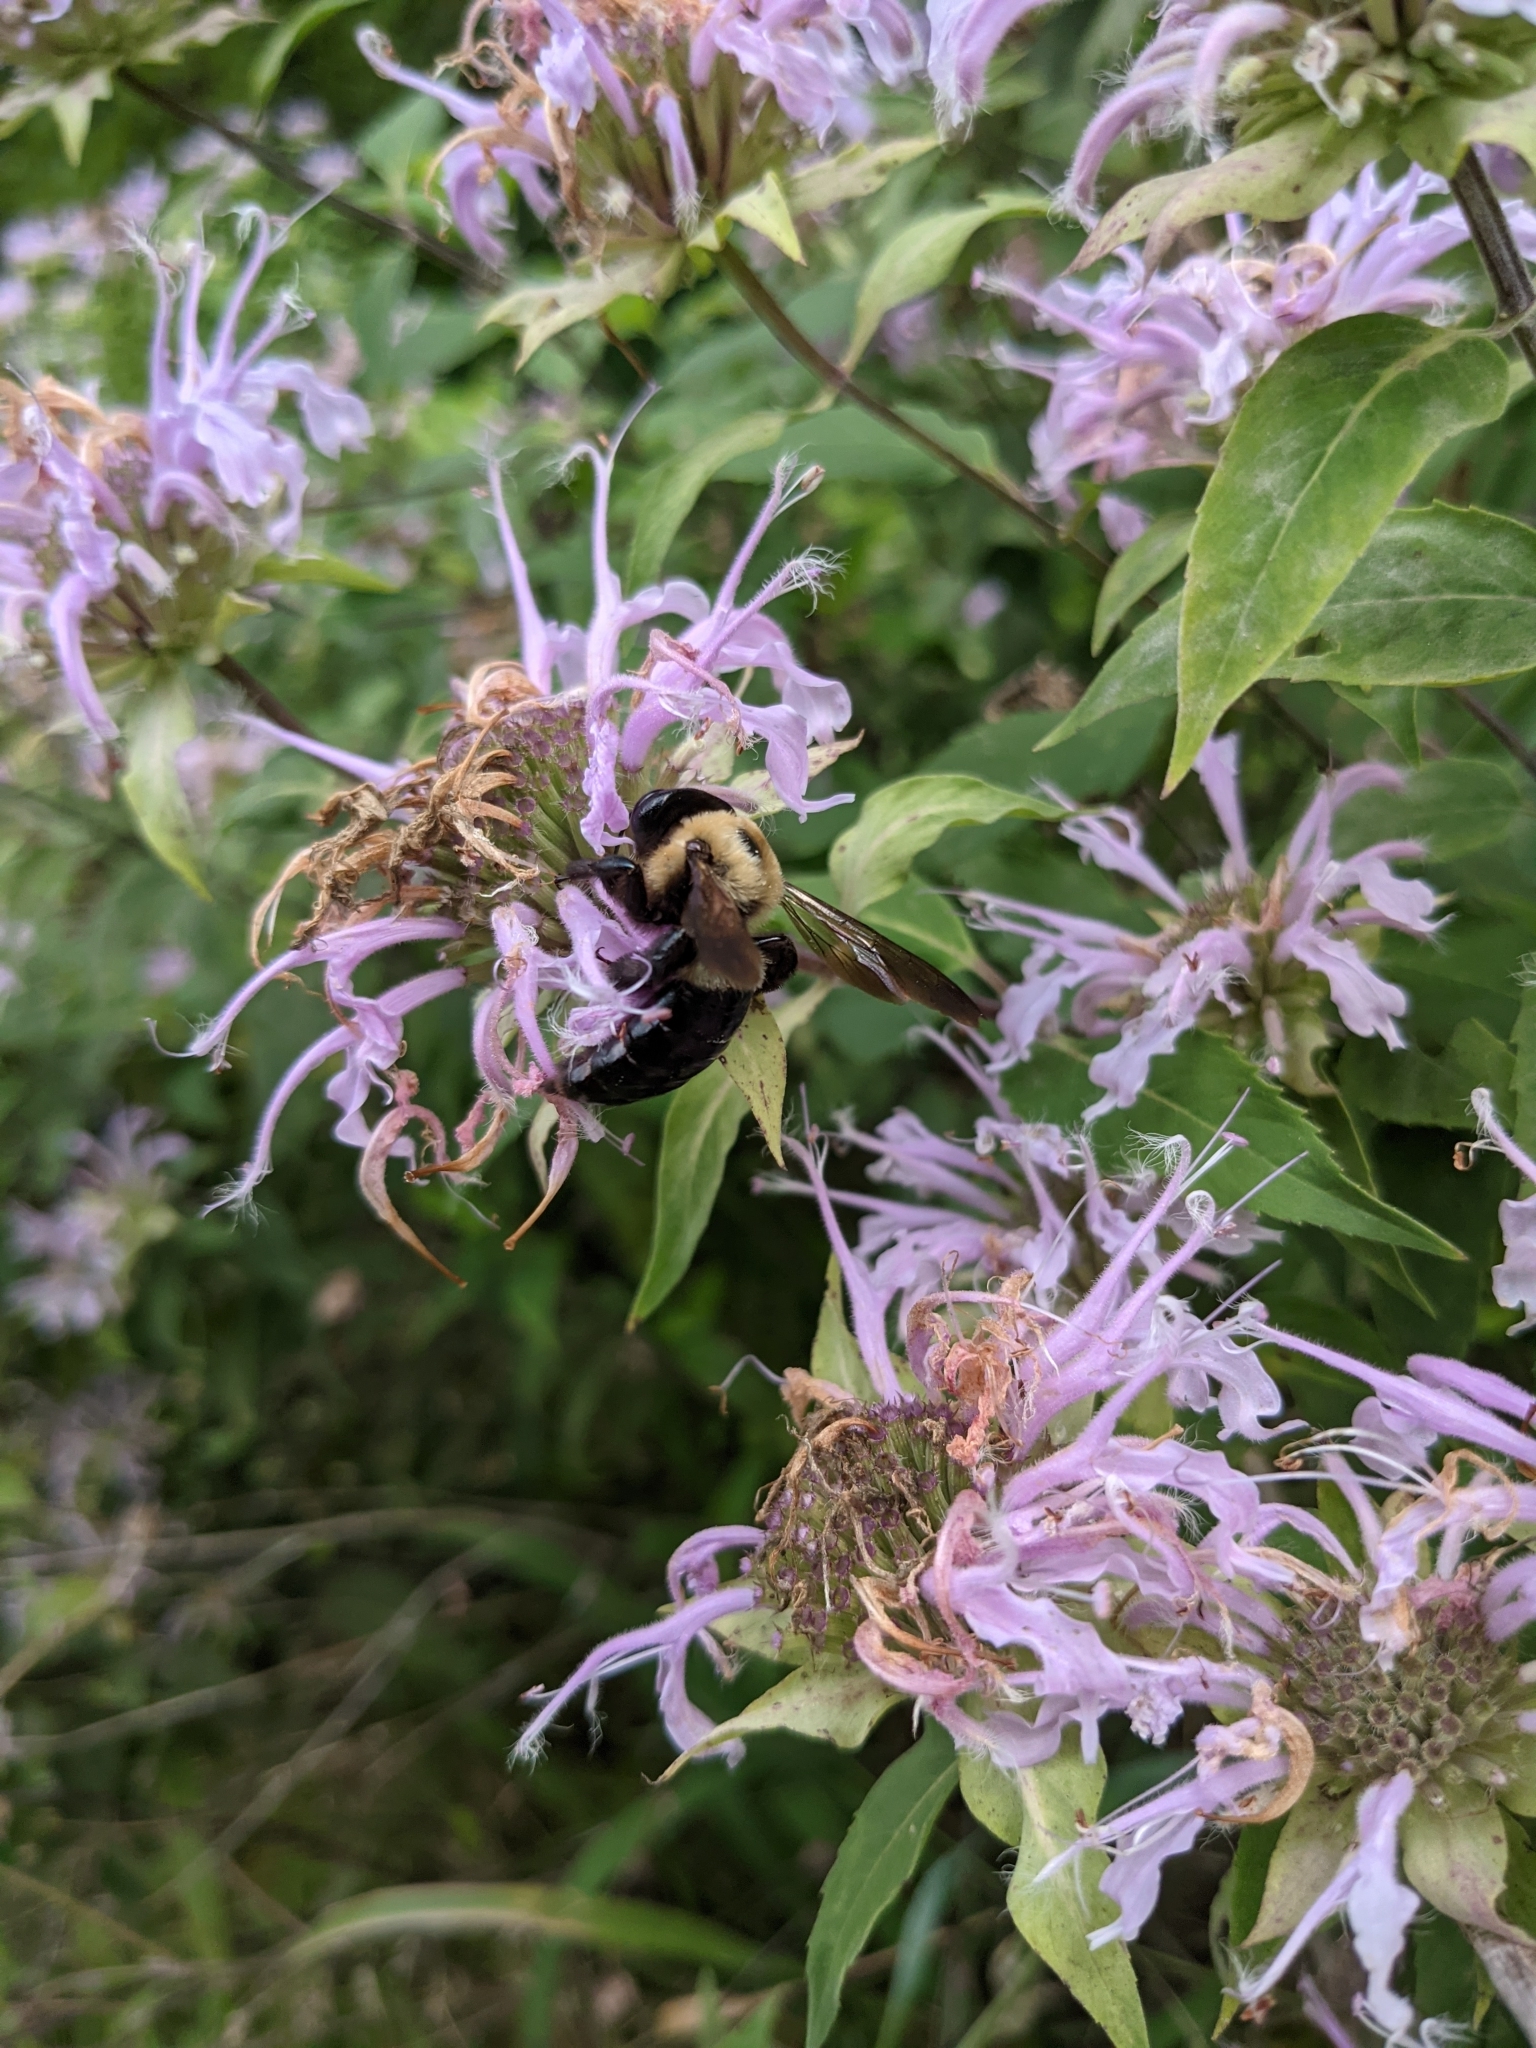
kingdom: Animalia
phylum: Arthropoda
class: Insecta
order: Hymenoptera
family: Apidae
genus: Xylocopa
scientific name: Xylocopa virginica
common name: Carpenter bee
